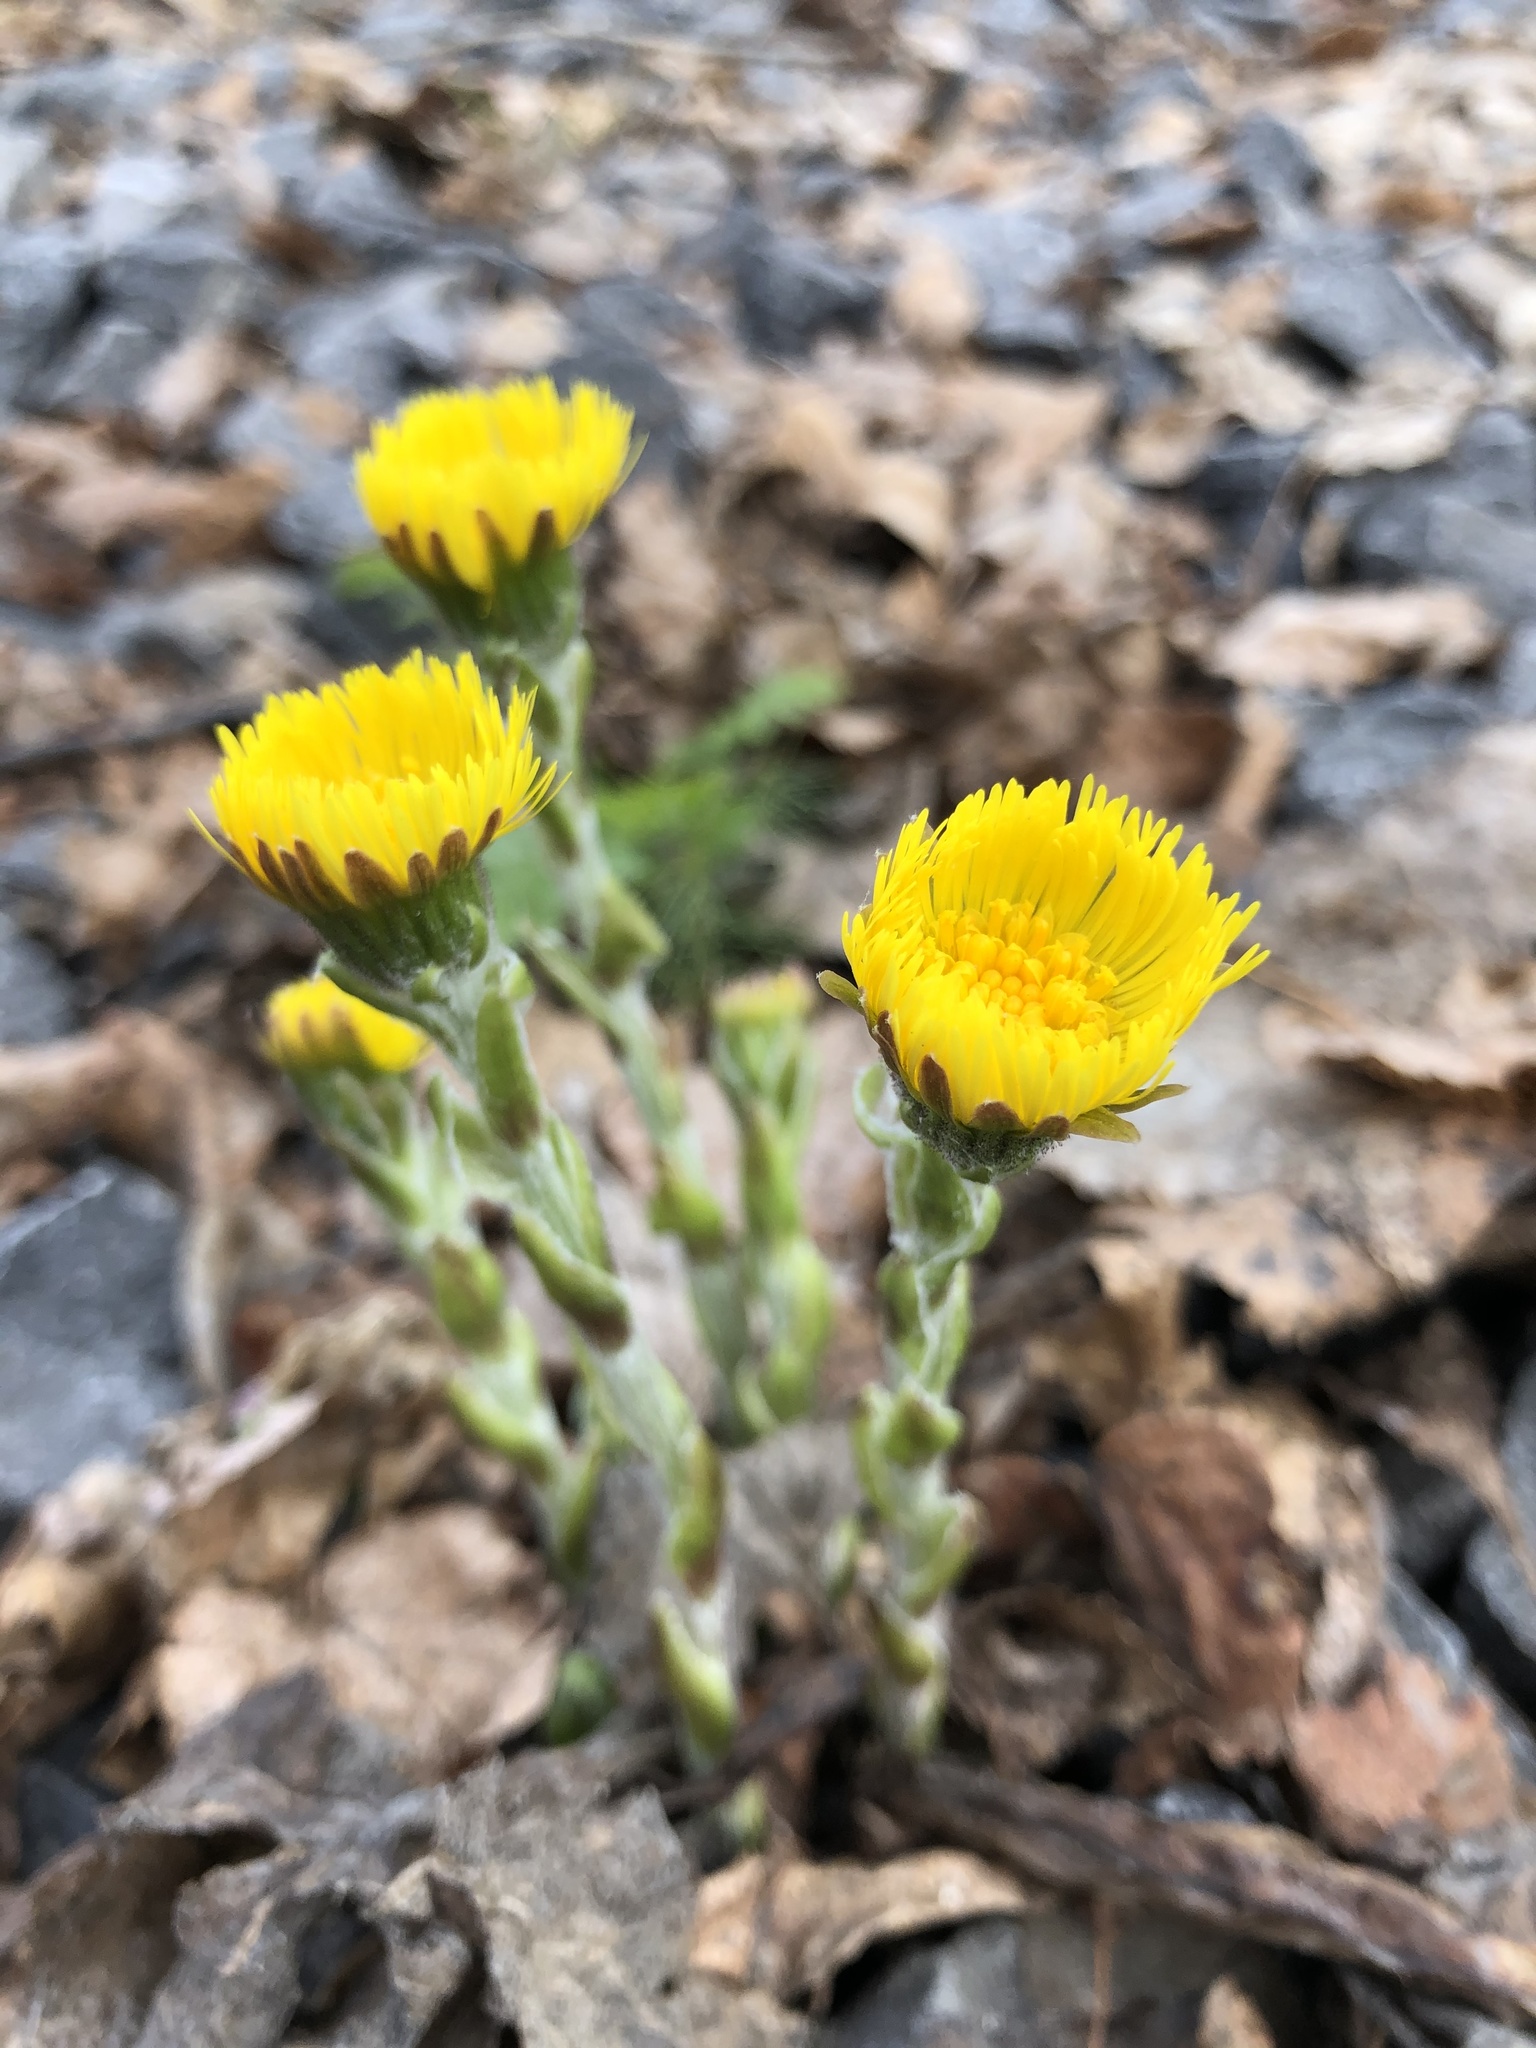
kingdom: Plantae
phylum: Tracheophyta
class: Magnoliopsida
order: Asterales
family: Asteraceae
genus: Tussilago
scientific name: Tussilago farfara
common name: Coltsfoot
